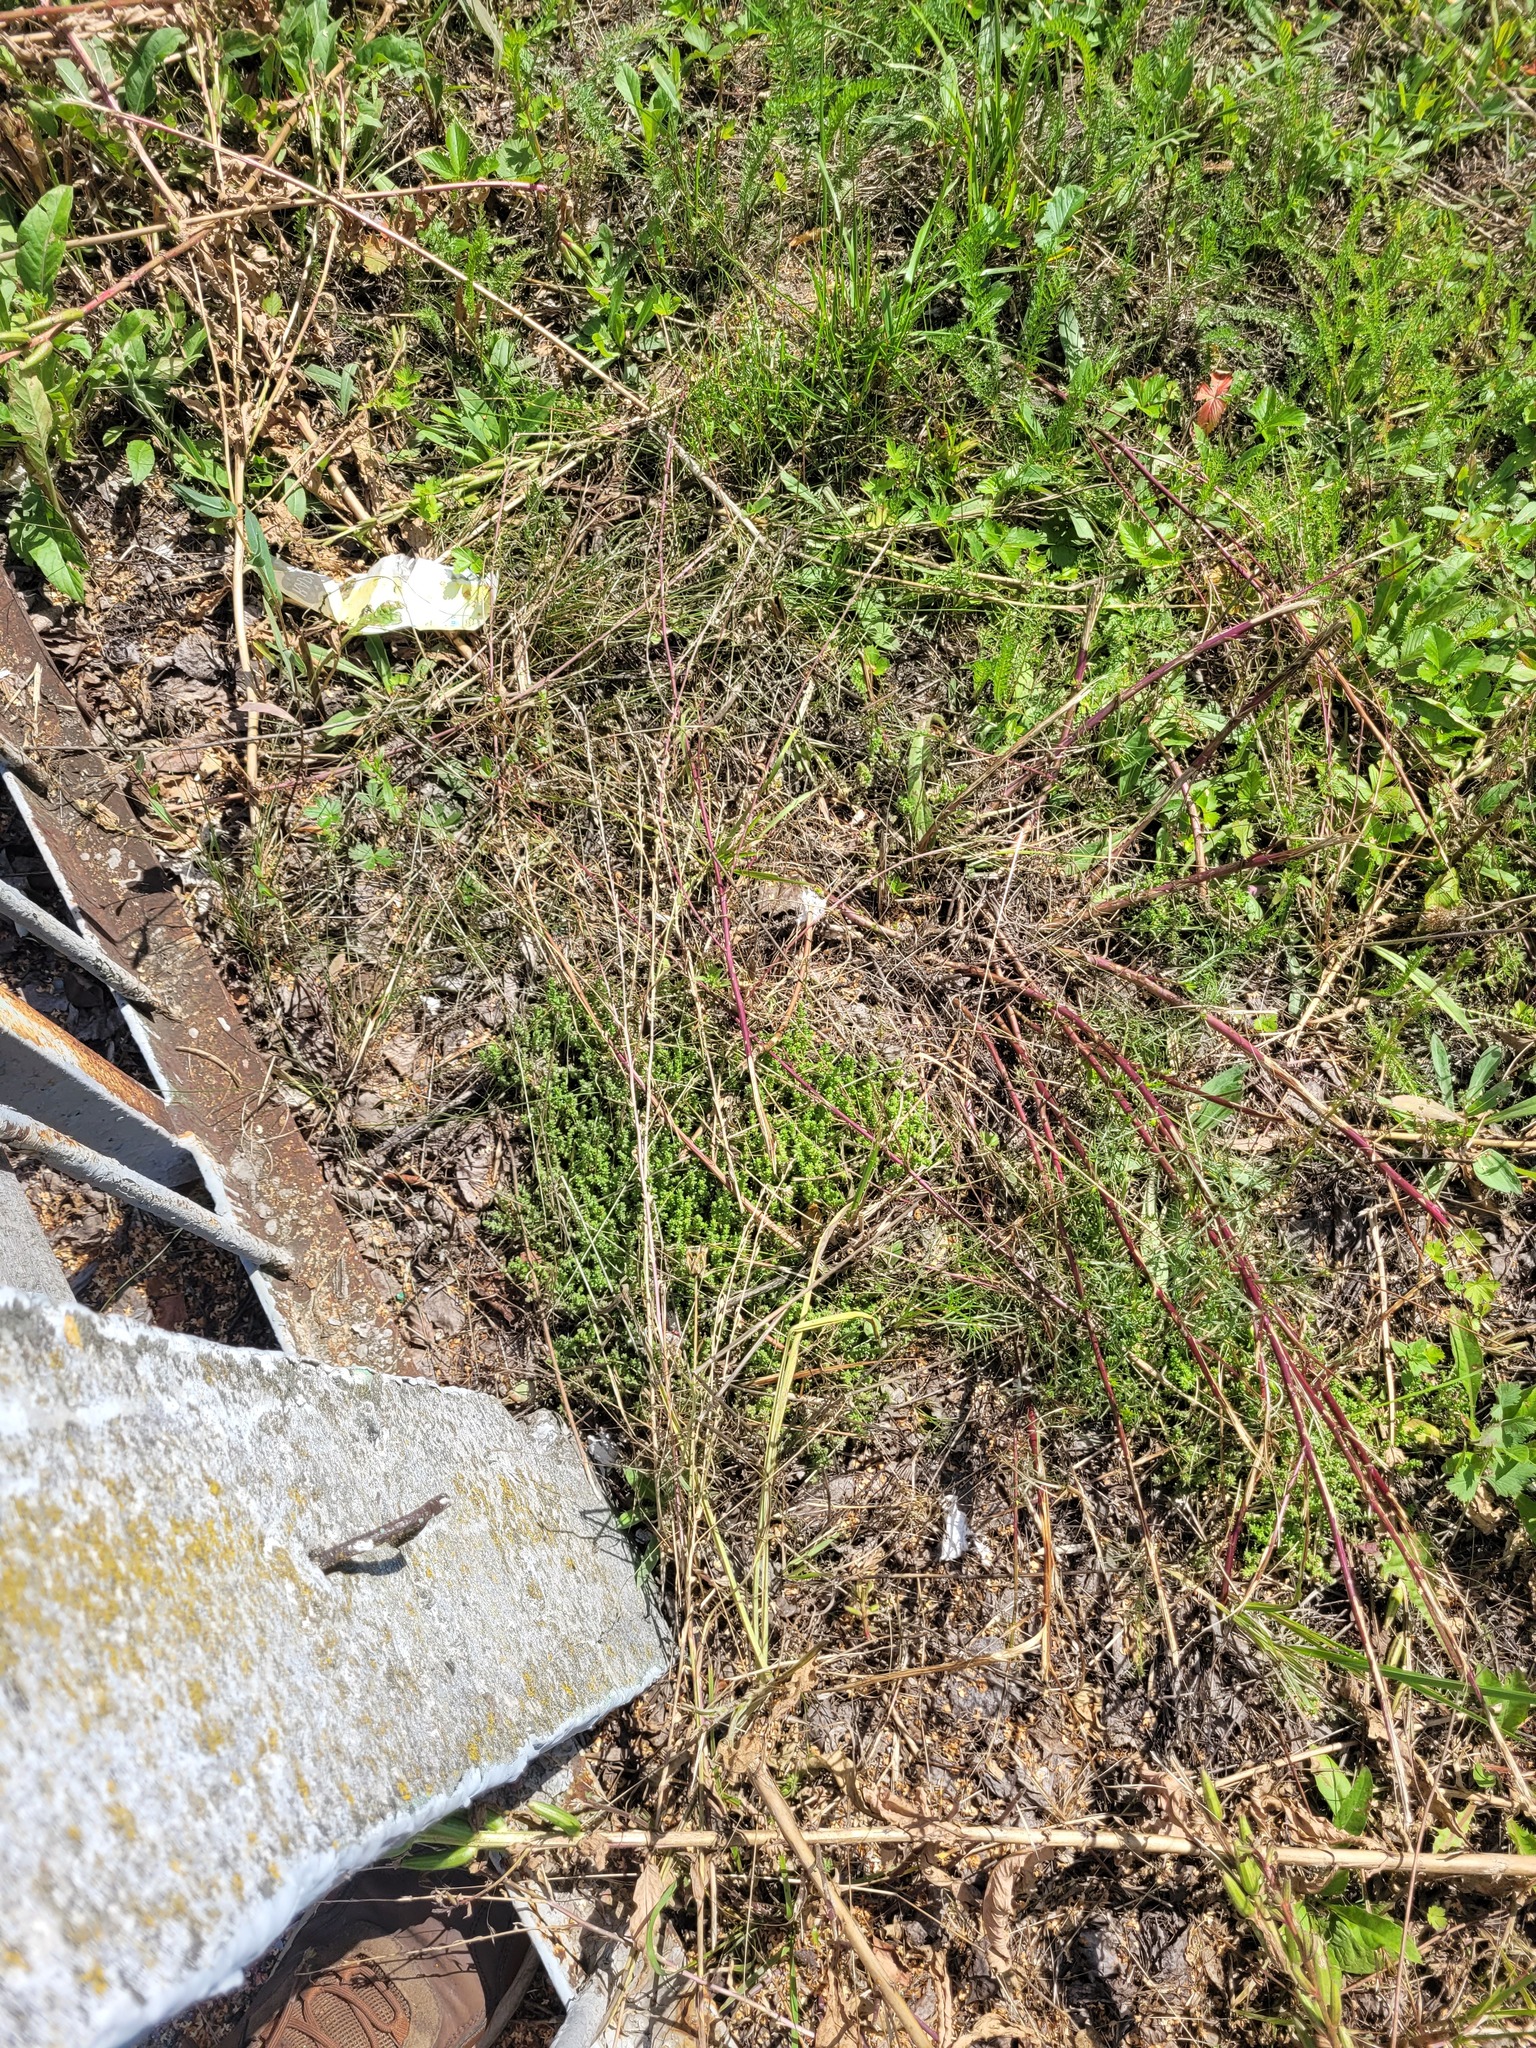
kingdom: Plantae
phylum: Tracheophyta
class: Magnoliopsida
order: Saxifragales
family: Crassulaceae
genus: Sedum
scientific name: Sedum acre
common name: Biting stonecrop
